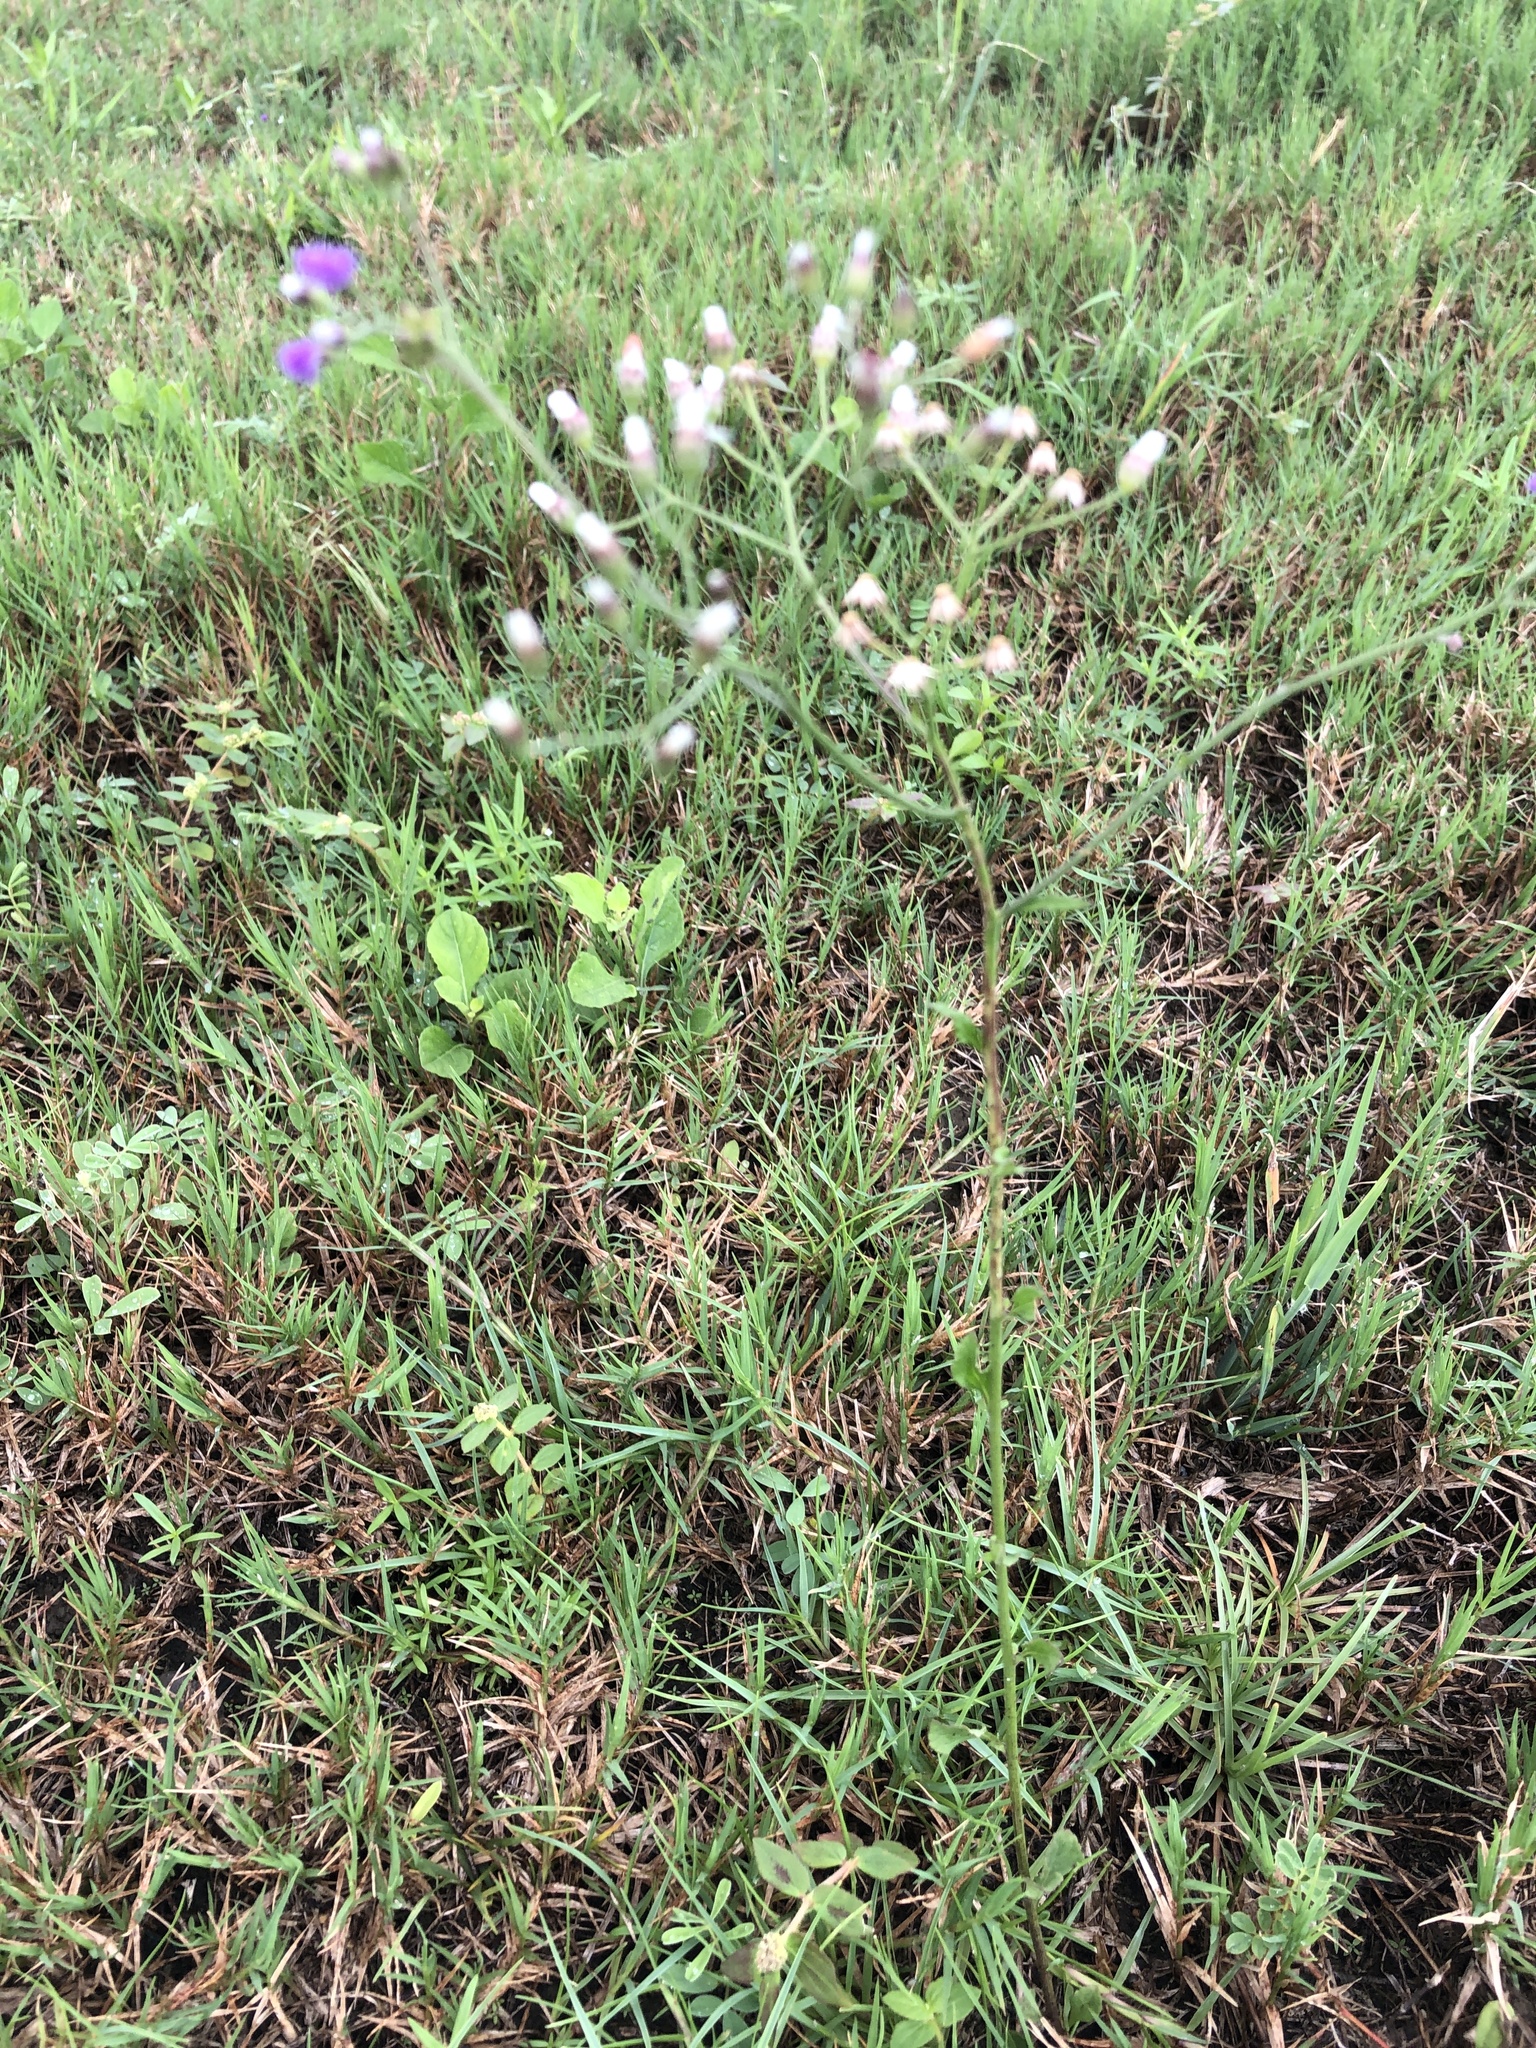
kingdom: Plantae
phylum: Tracheophyta
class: Magnoliopsida
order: Asterales
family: Asteraceae
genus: Cyanthillium
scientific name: Cyanthillium cinereum
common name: Little ironweed
